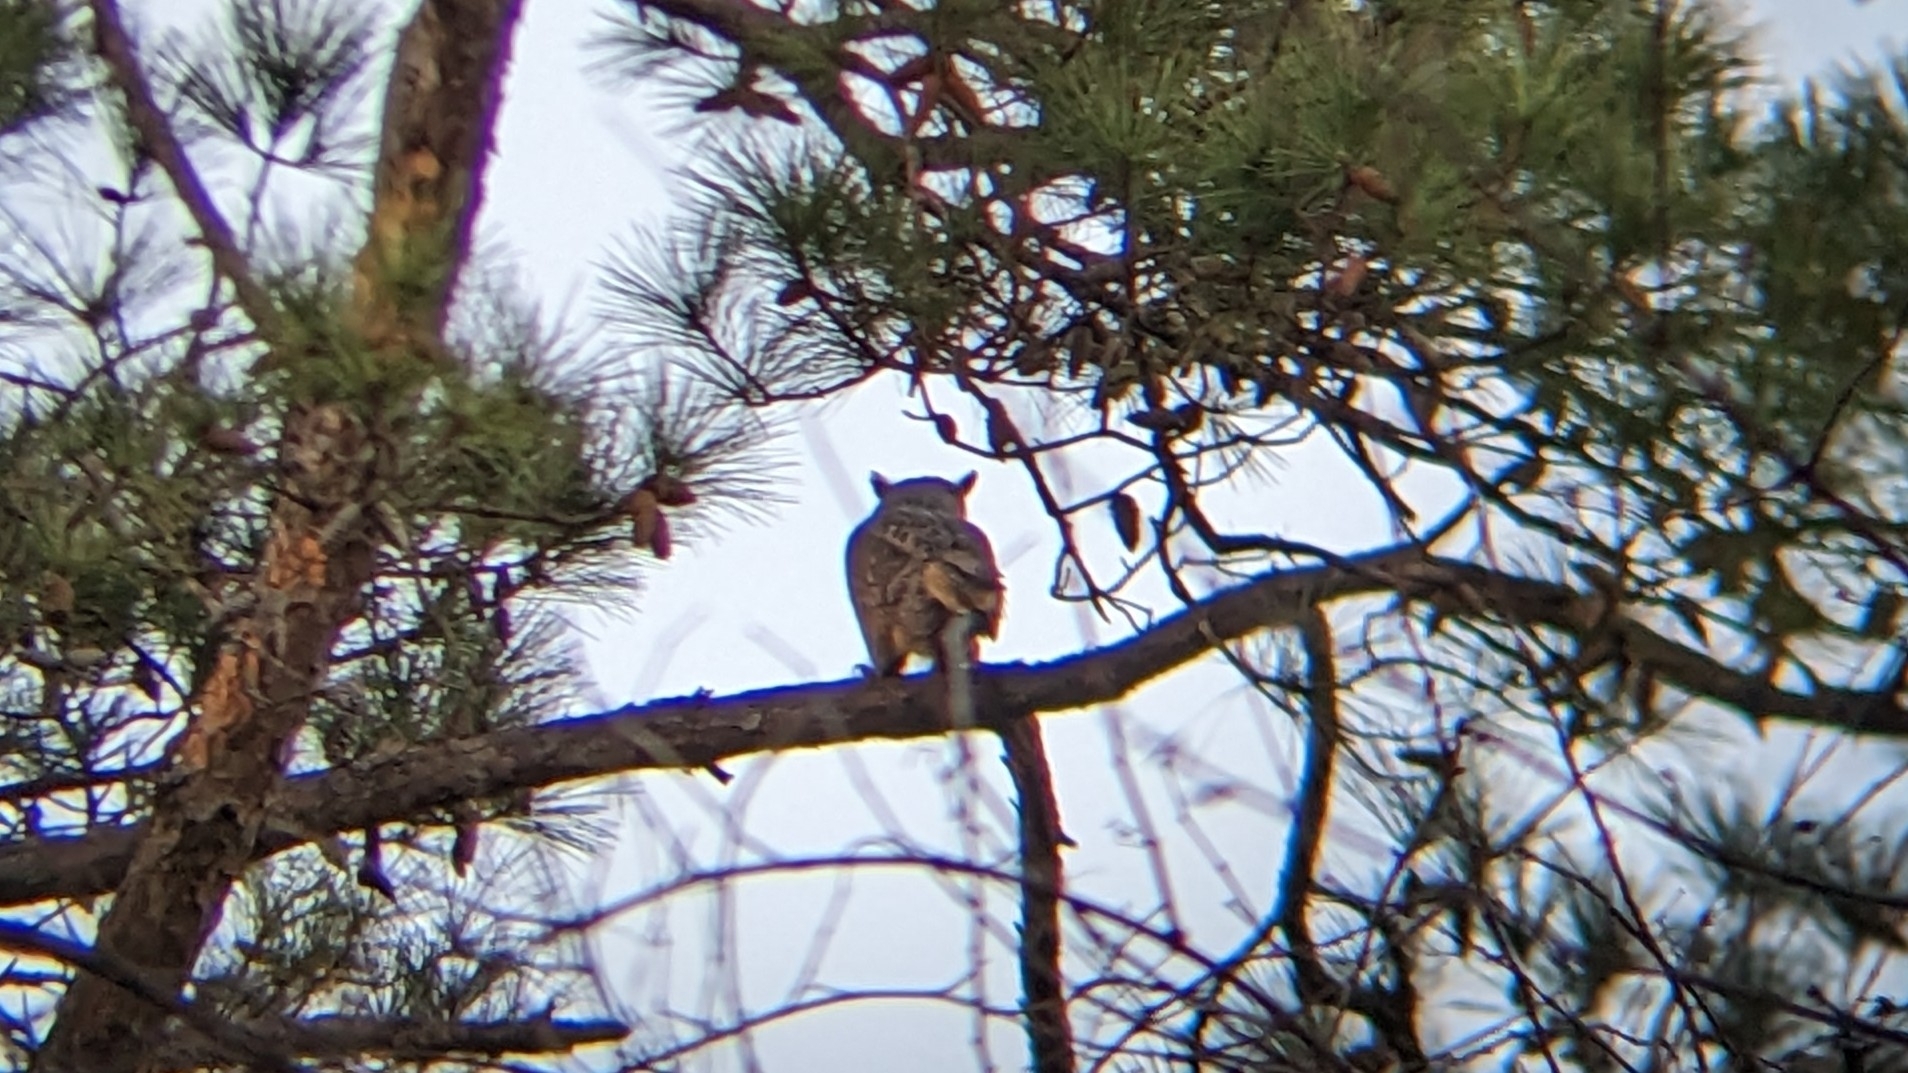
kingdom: Animalia
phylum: Chordata
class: Aves
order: Strigiformes
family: Strigidae
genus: Bubo
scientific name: Bubo virginianus
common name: Great horned owl
